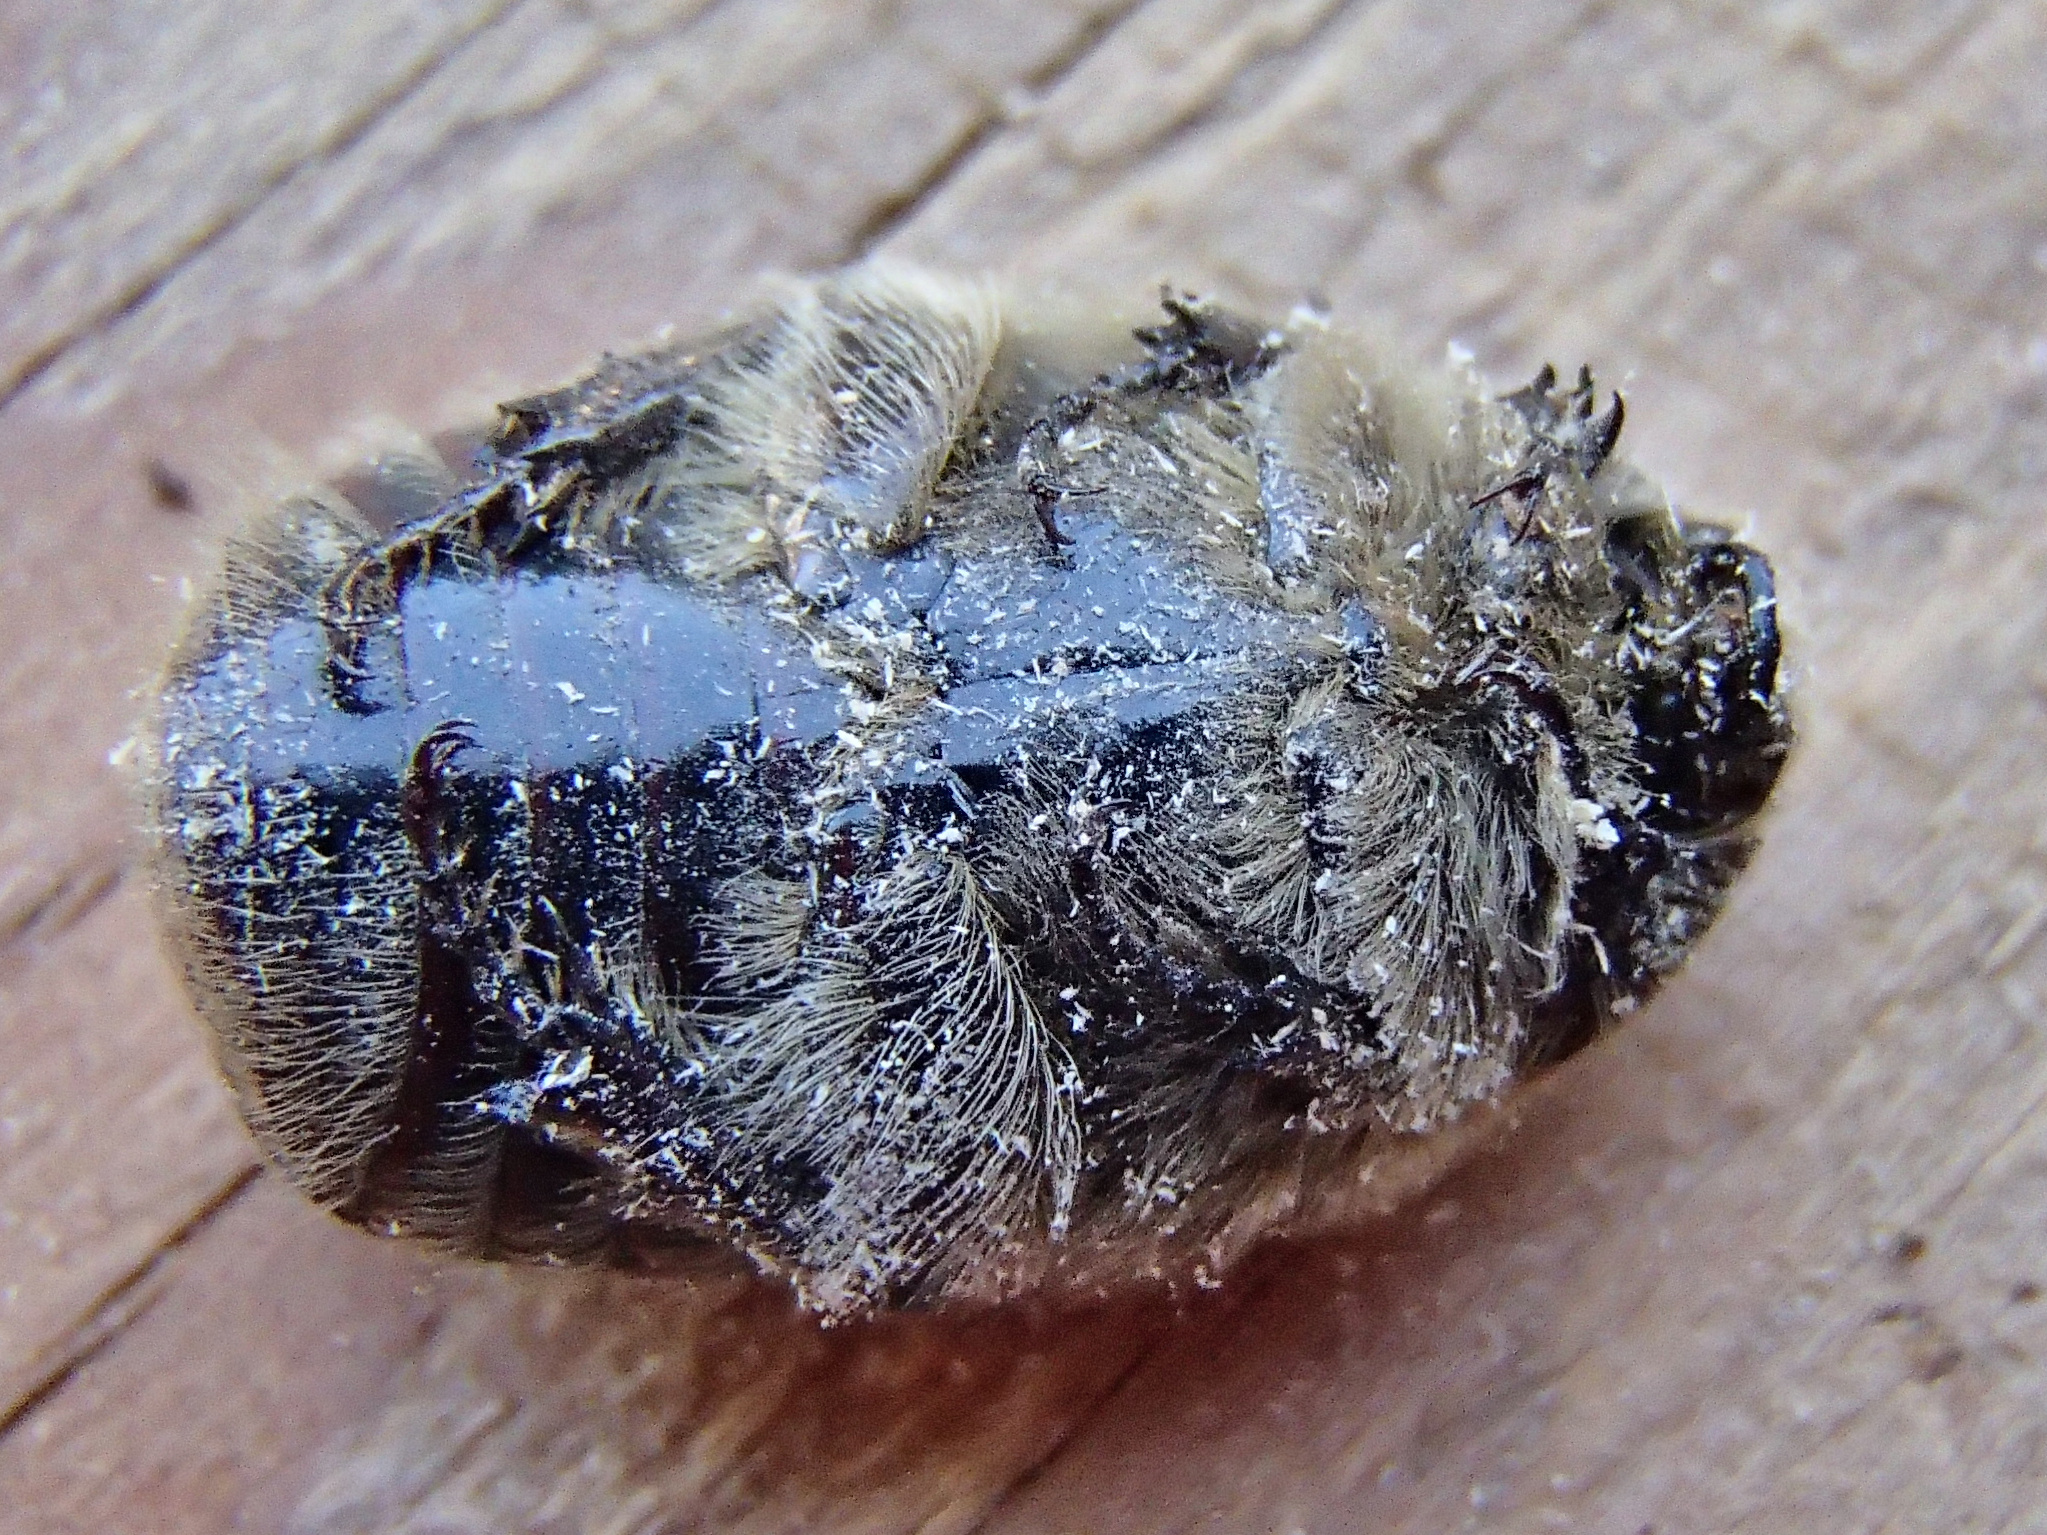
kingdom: Animalia
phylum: Arthropoda
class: Insecta
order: Coleoptera
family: Scarabaeidae
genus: Euphoria
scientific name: Euphoria inda
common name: Bumble flower beetle
